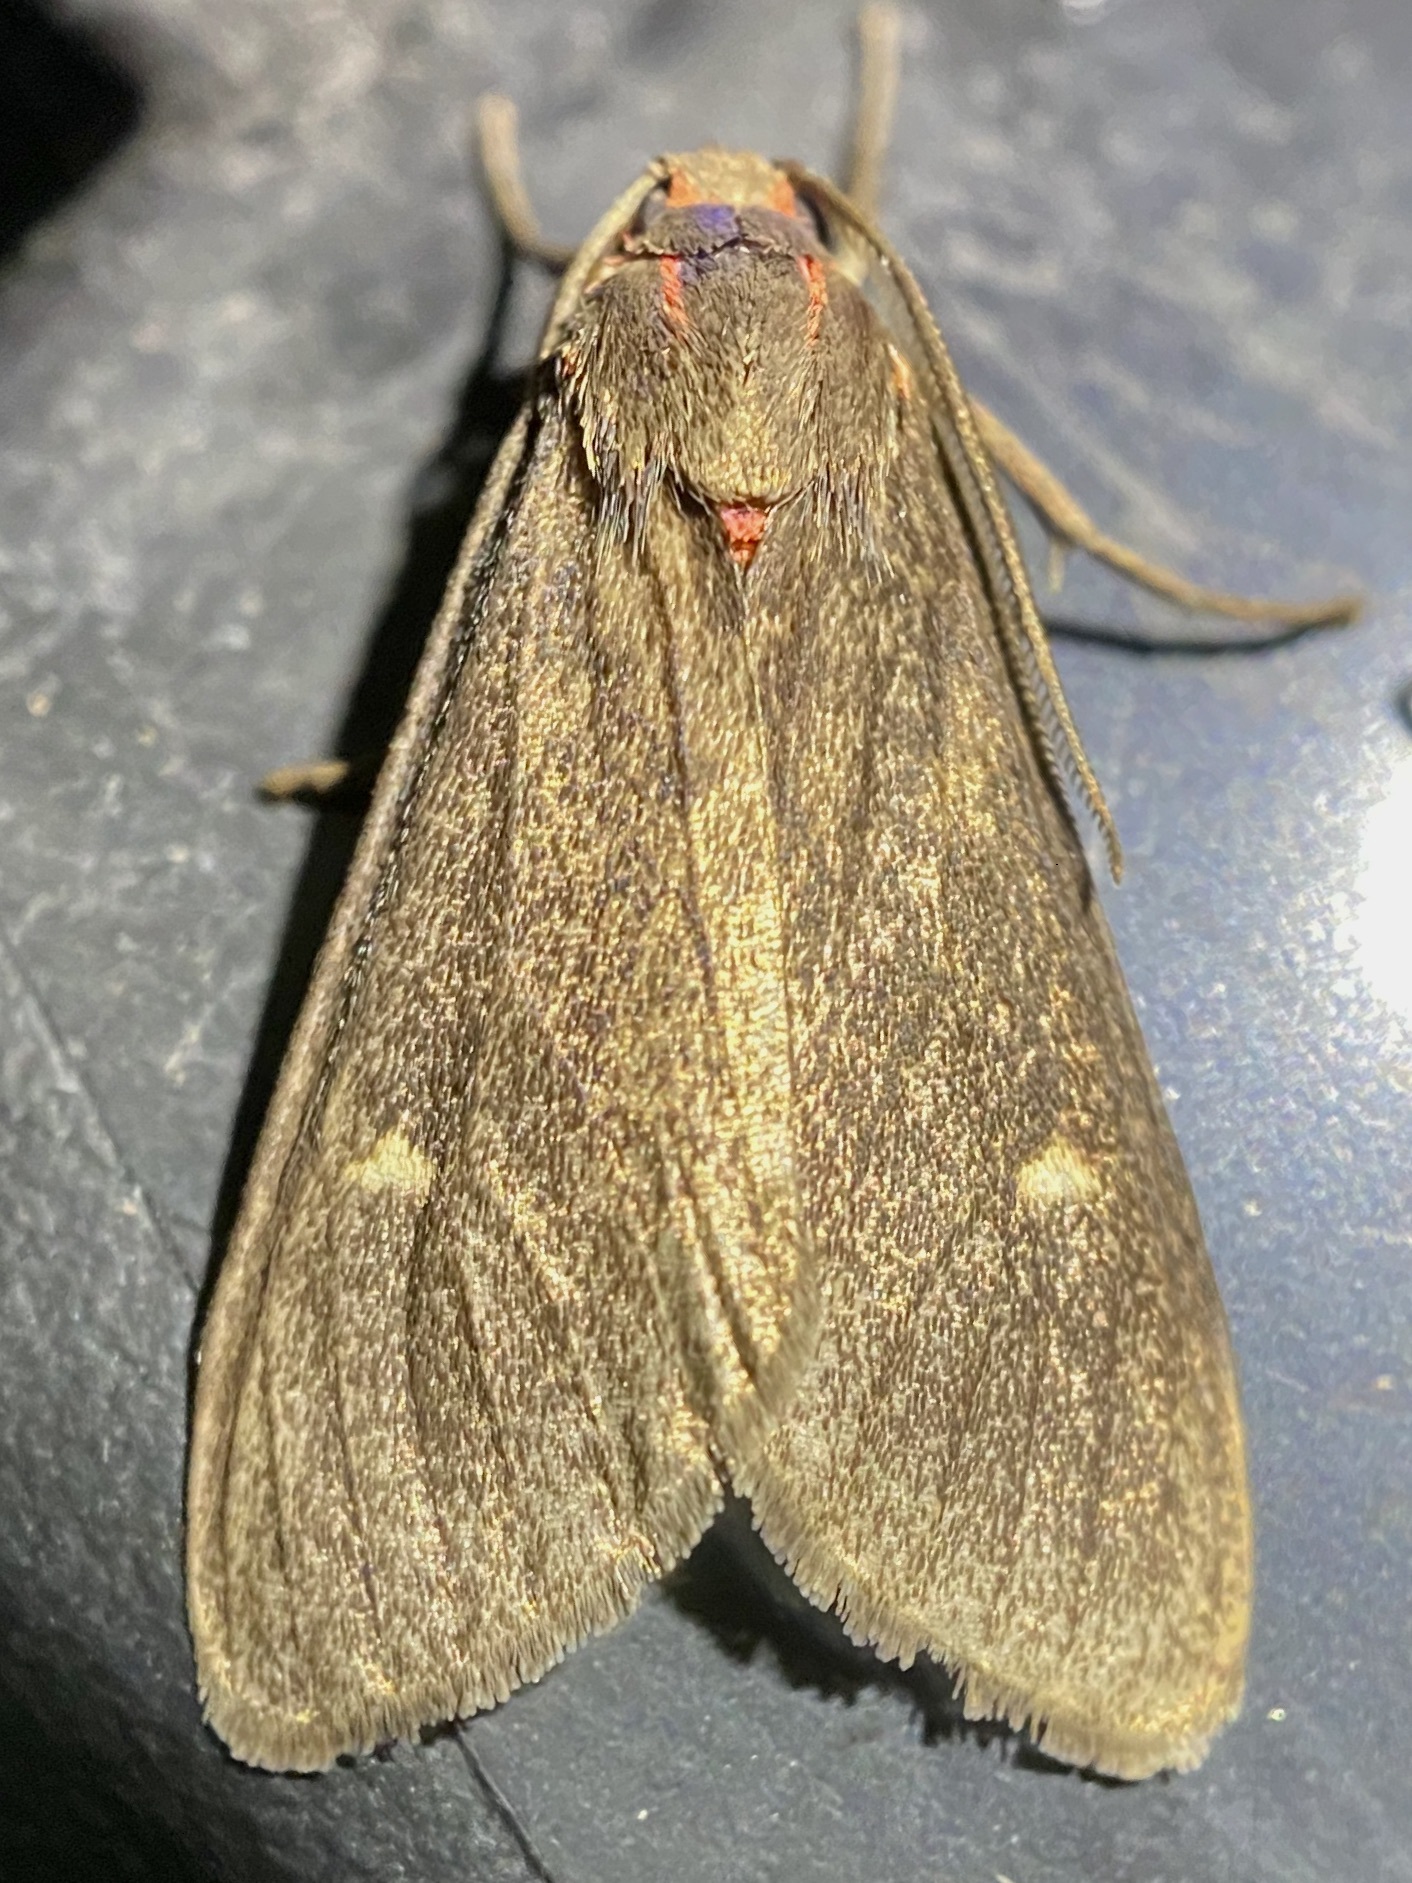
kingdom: Animalia
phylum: Arthropoda
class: Insecta
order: Lepidoptera
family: Erebidae
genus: Euchaetes
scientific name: Euchaetes zella
